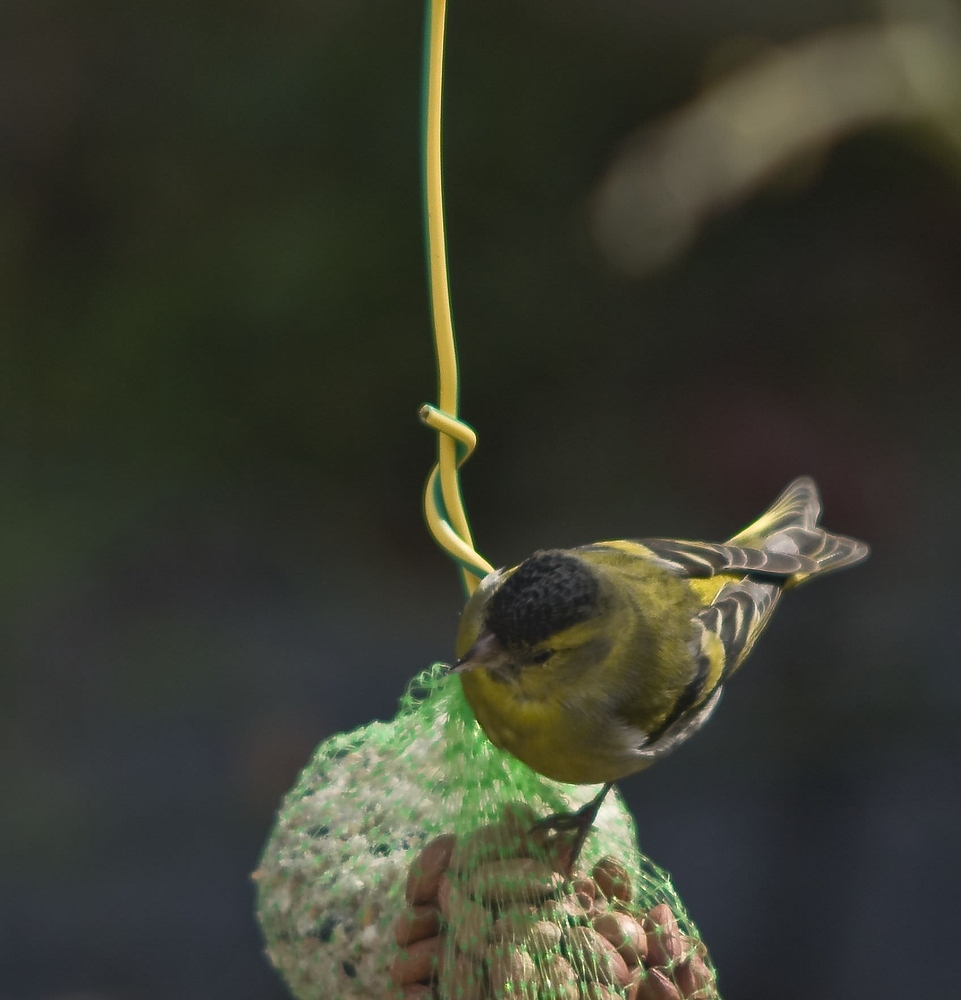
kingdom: Animalia
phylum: Chordata
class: Aves
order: Passeriformes
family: Fringillidae
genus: Spinus
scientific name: Spinus spinus
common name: Eurasian siskin
